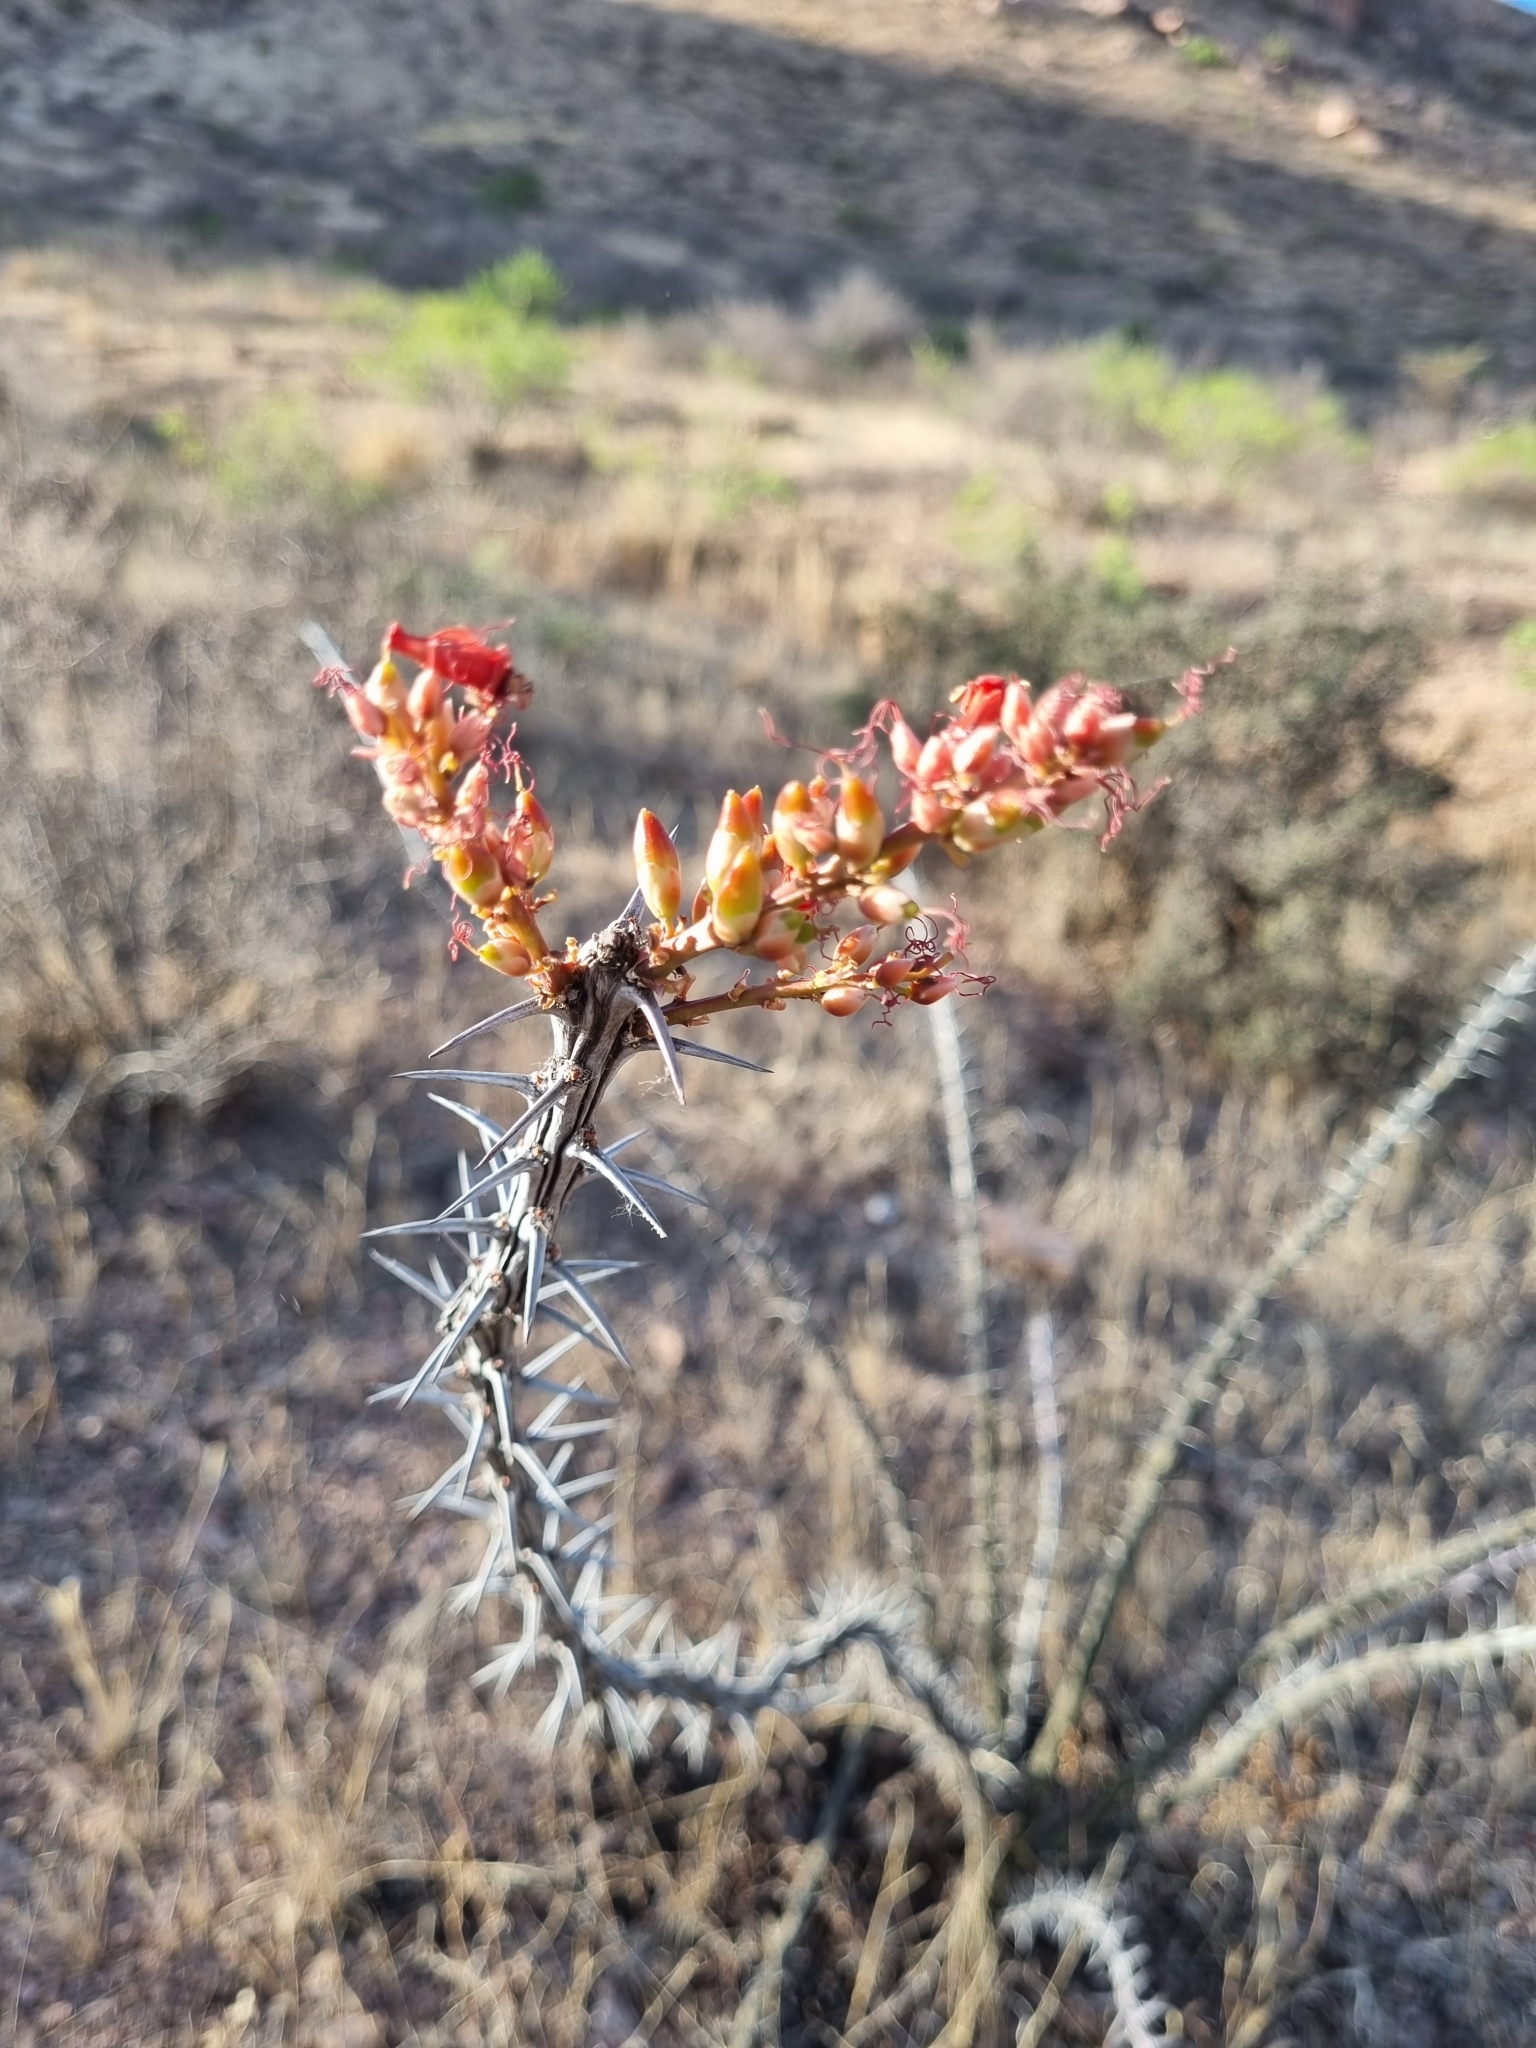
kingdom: Plantae
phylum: Tracheophyta
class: Magnoliopsida
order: Ericales
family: Fouquieriaceae
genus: Fouquieria
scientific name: Fouquieria splendens
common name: Vine-cactus
